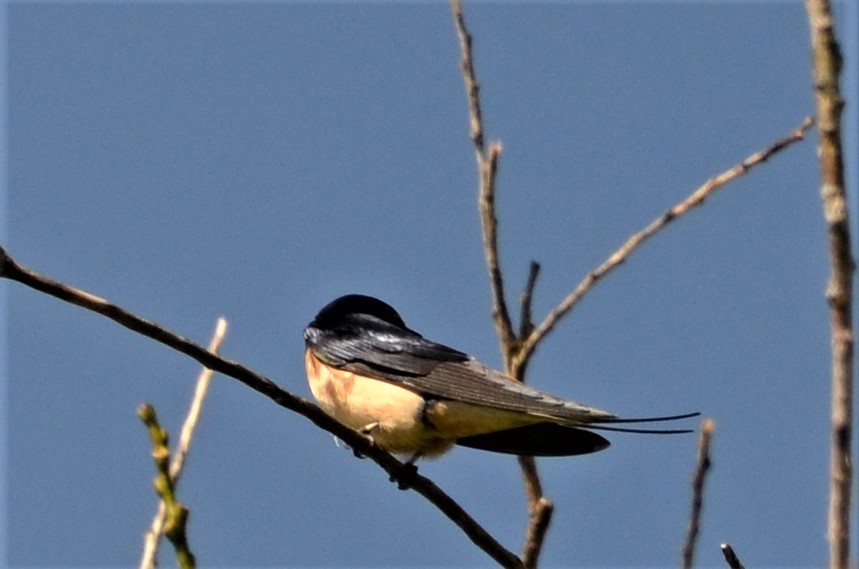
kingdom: Animalia
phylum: Chordata
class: Aves
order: Passeriformes
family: Hirundinidae
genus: Hirundo
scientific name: Hirundo rustica
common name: Barn swallow
